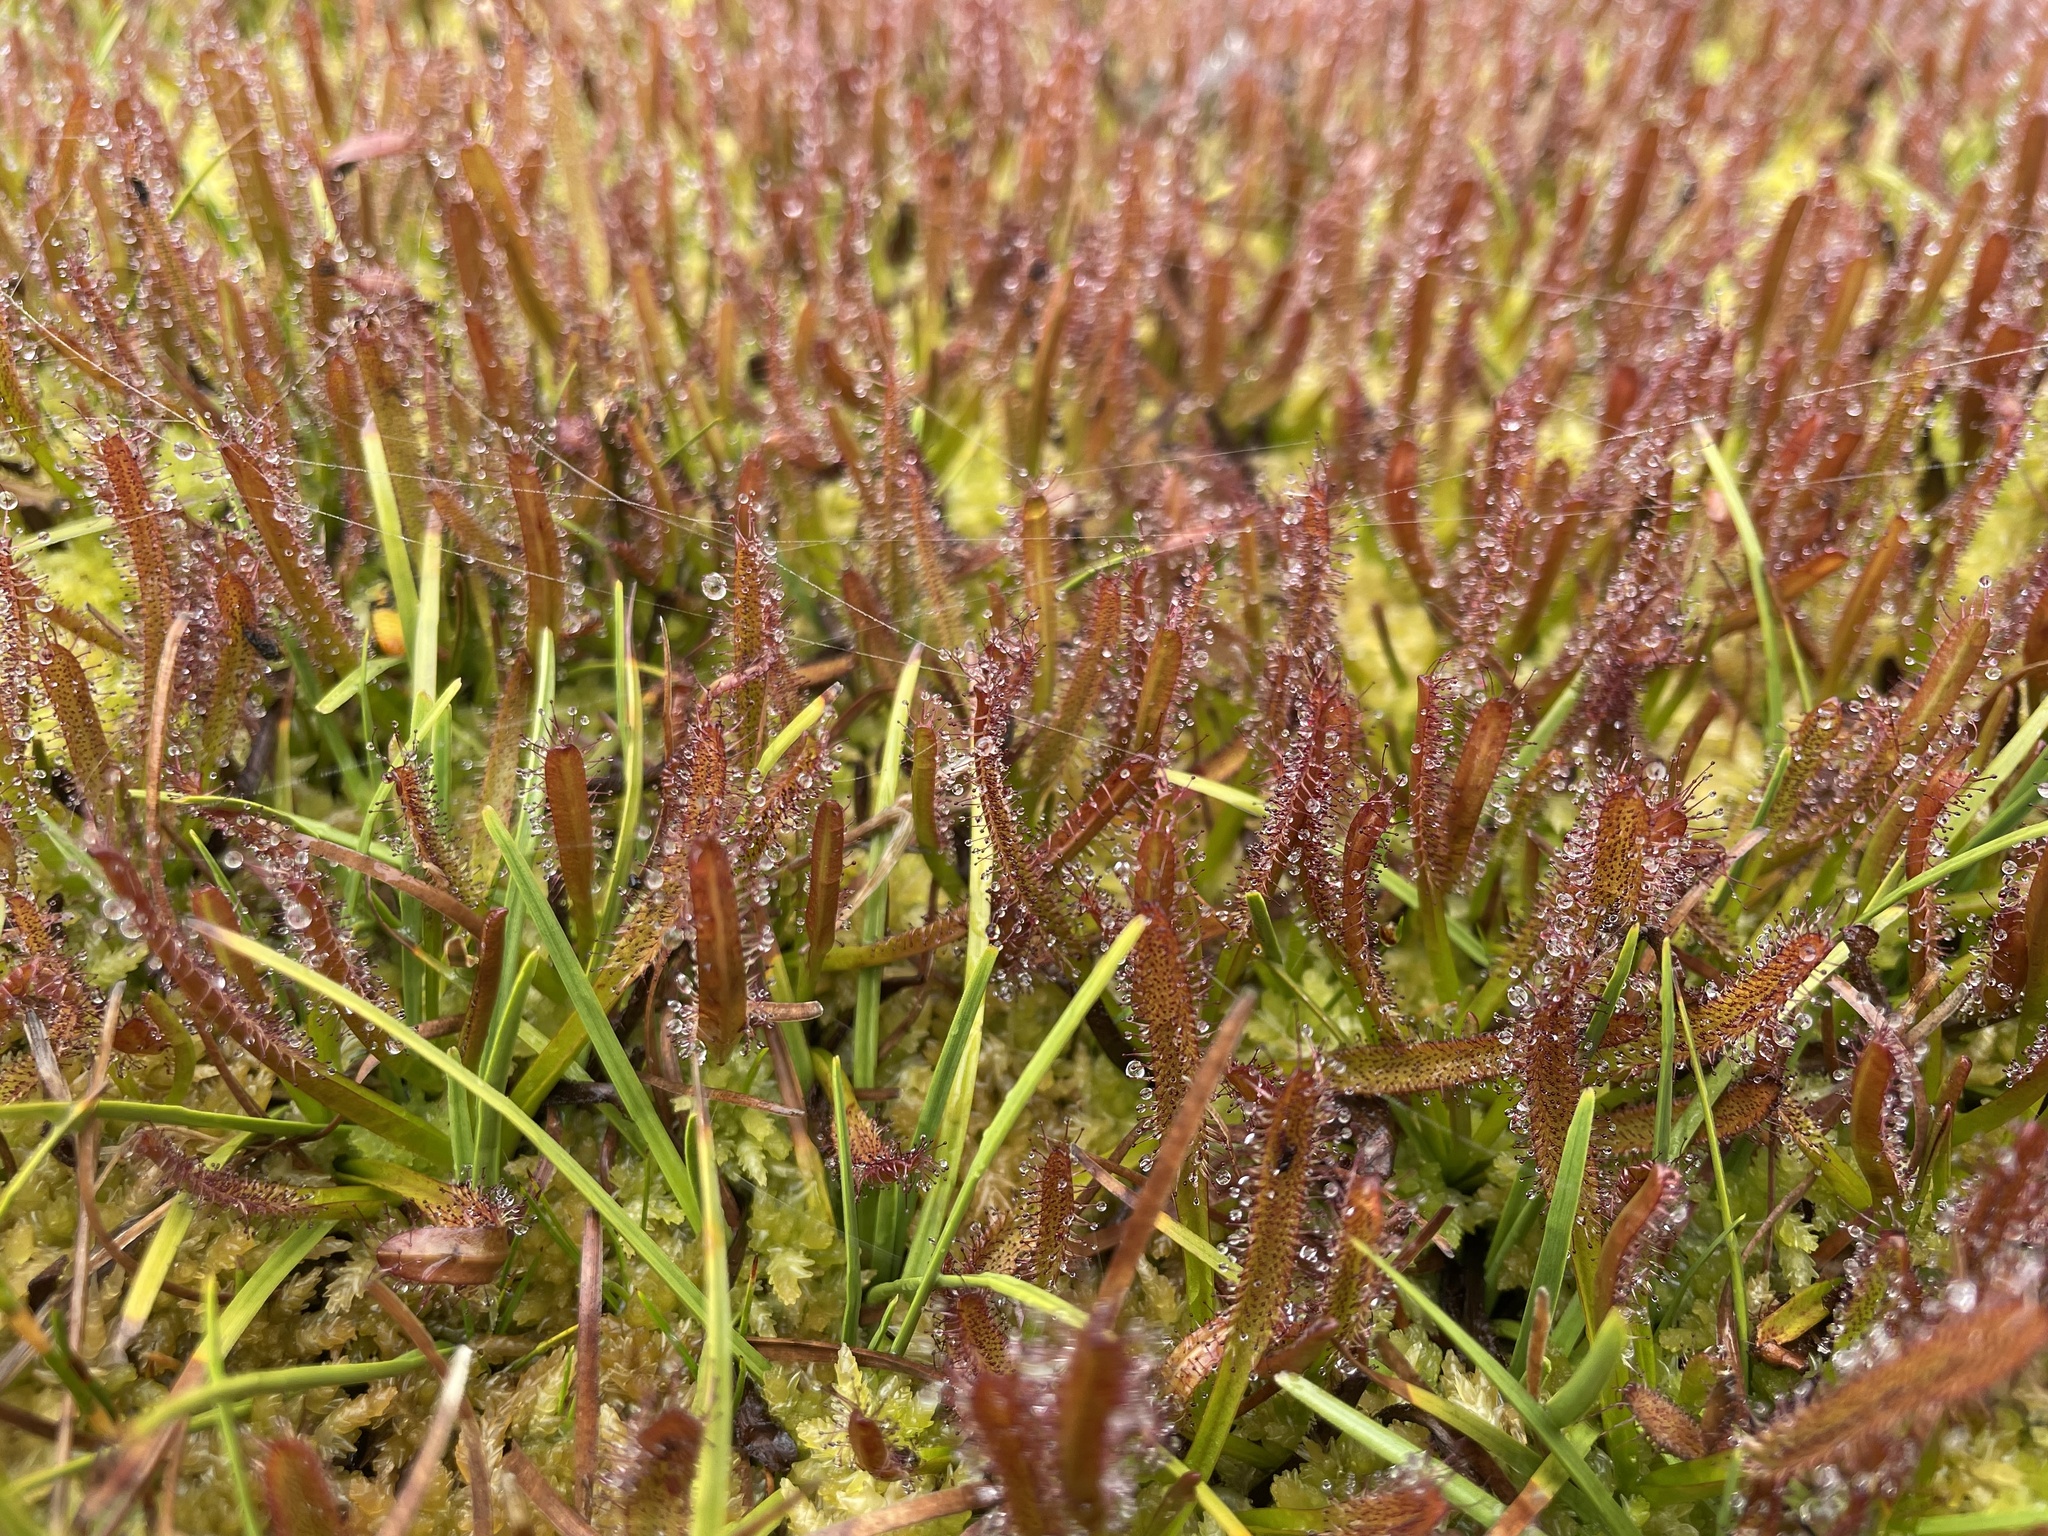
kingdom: Plantae
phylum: Tracheophyta
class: Magnoliopsida
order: Caryophyllales
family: Droseraceae
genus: Drosera
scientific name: Drosera arcturi
